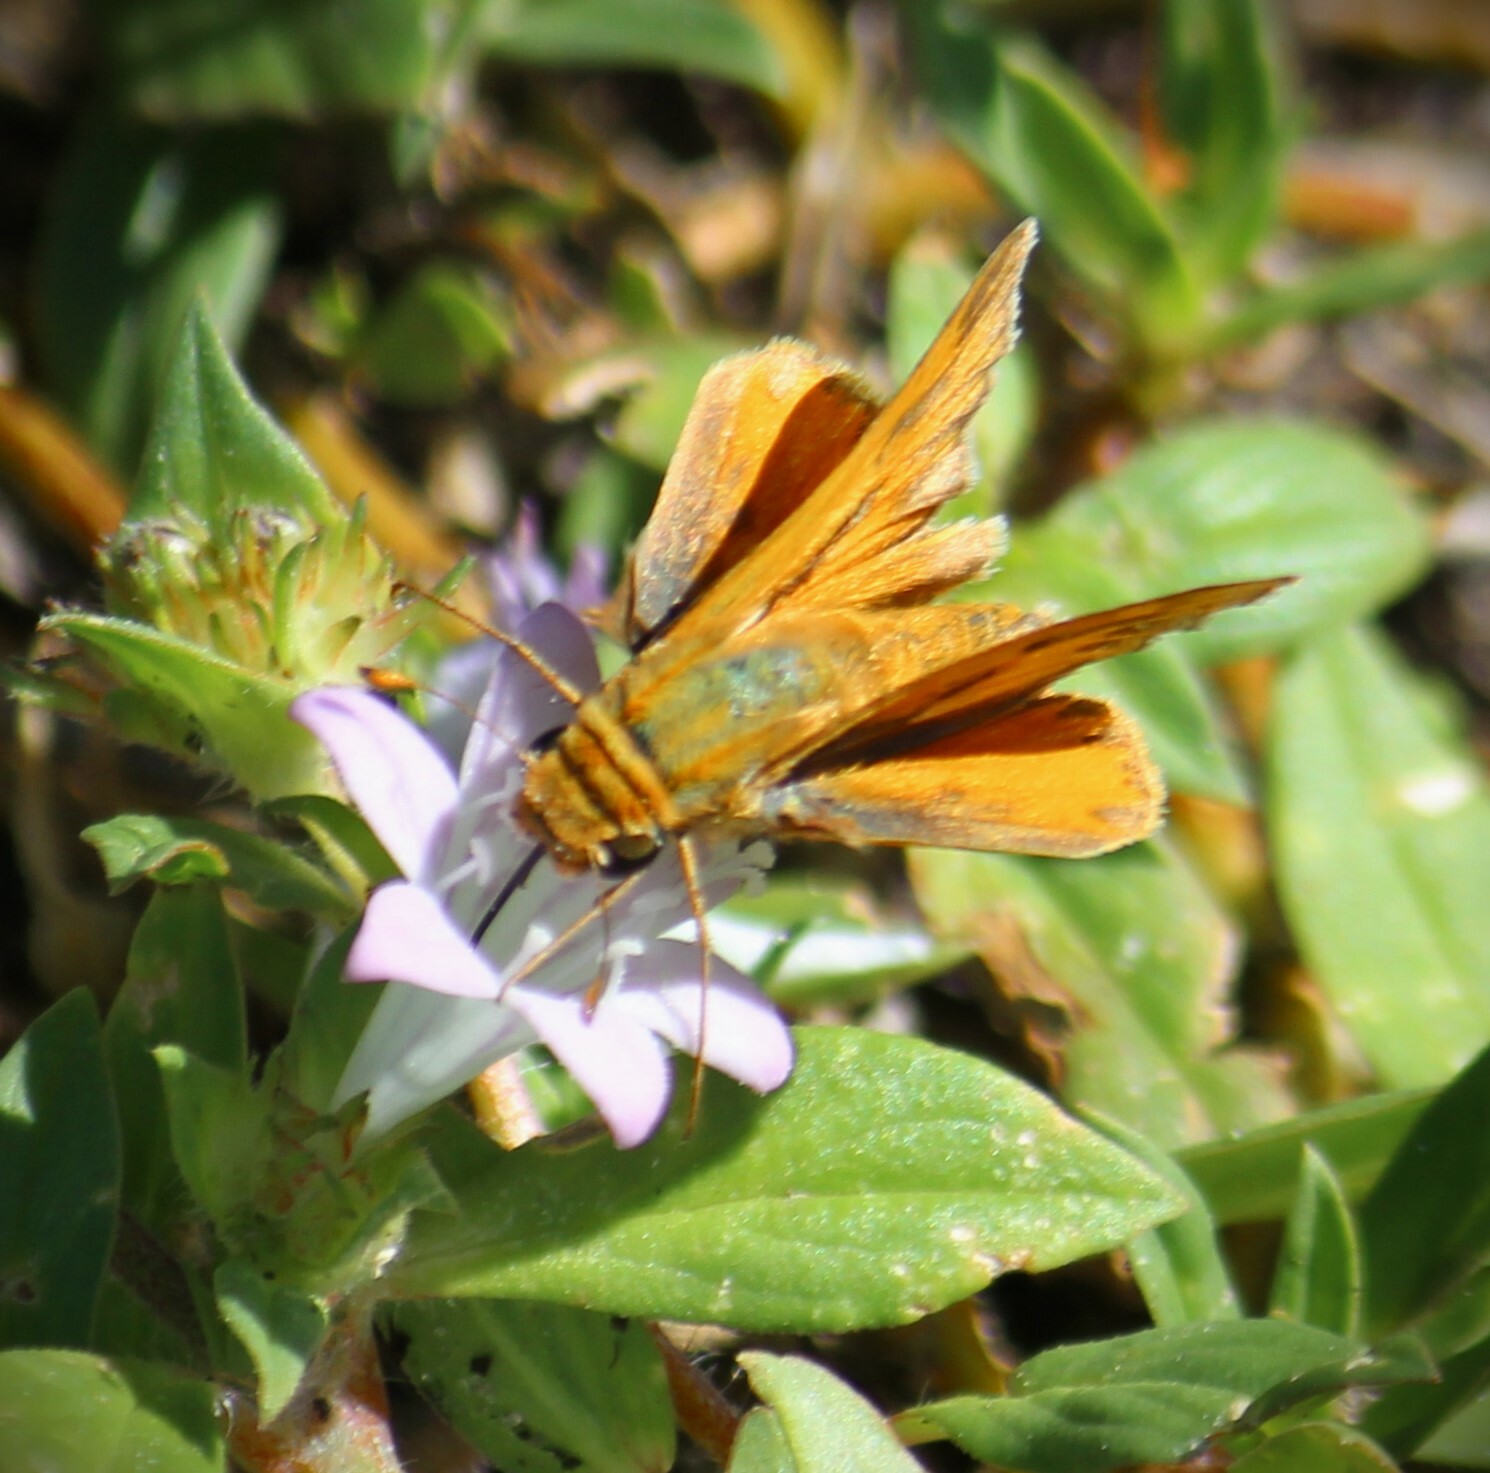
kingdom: Animalia
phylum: Arthropoda
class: Insecta
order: Lepidoptera
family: Hesperiidae
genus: Hylephila
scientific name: Hylephila phyleus
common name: Fiery skipper
